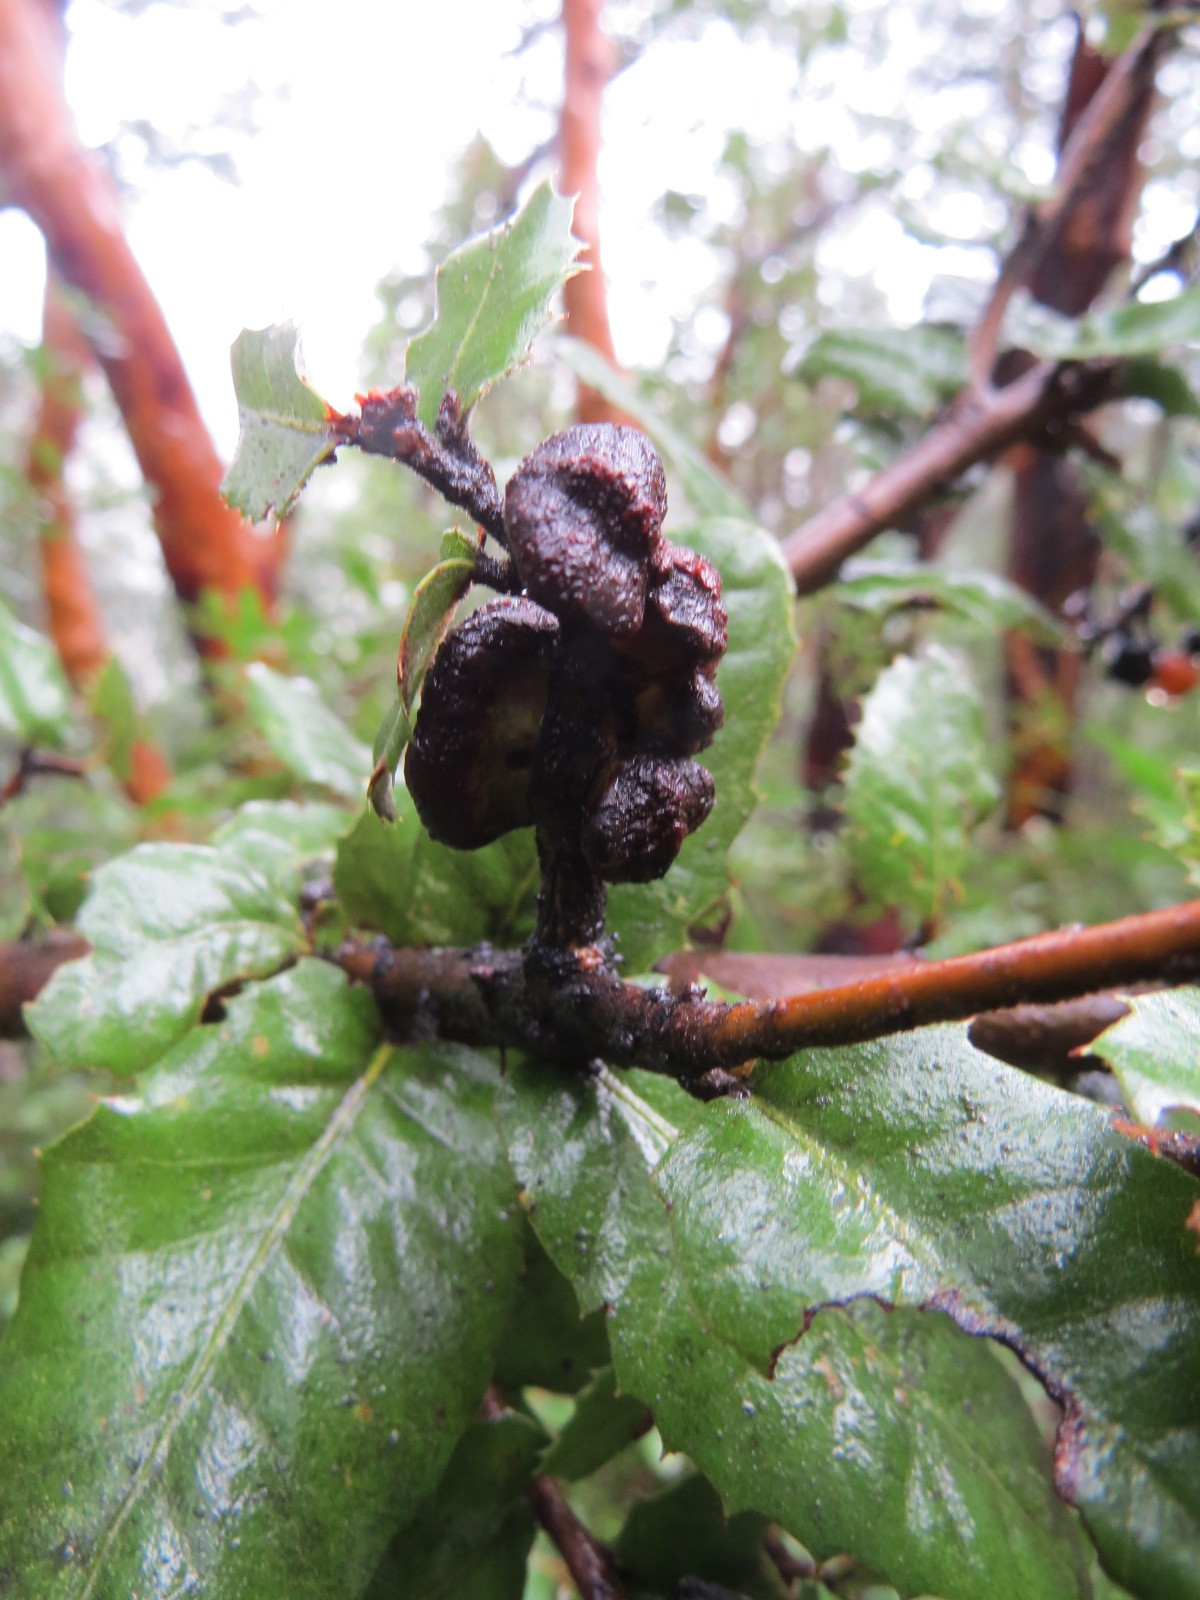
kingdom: Animalia
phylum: Arthropoda
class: Insecta
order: Hymenoptera
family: Cynipidae
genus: Disholandricus
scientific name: Disholandricus
